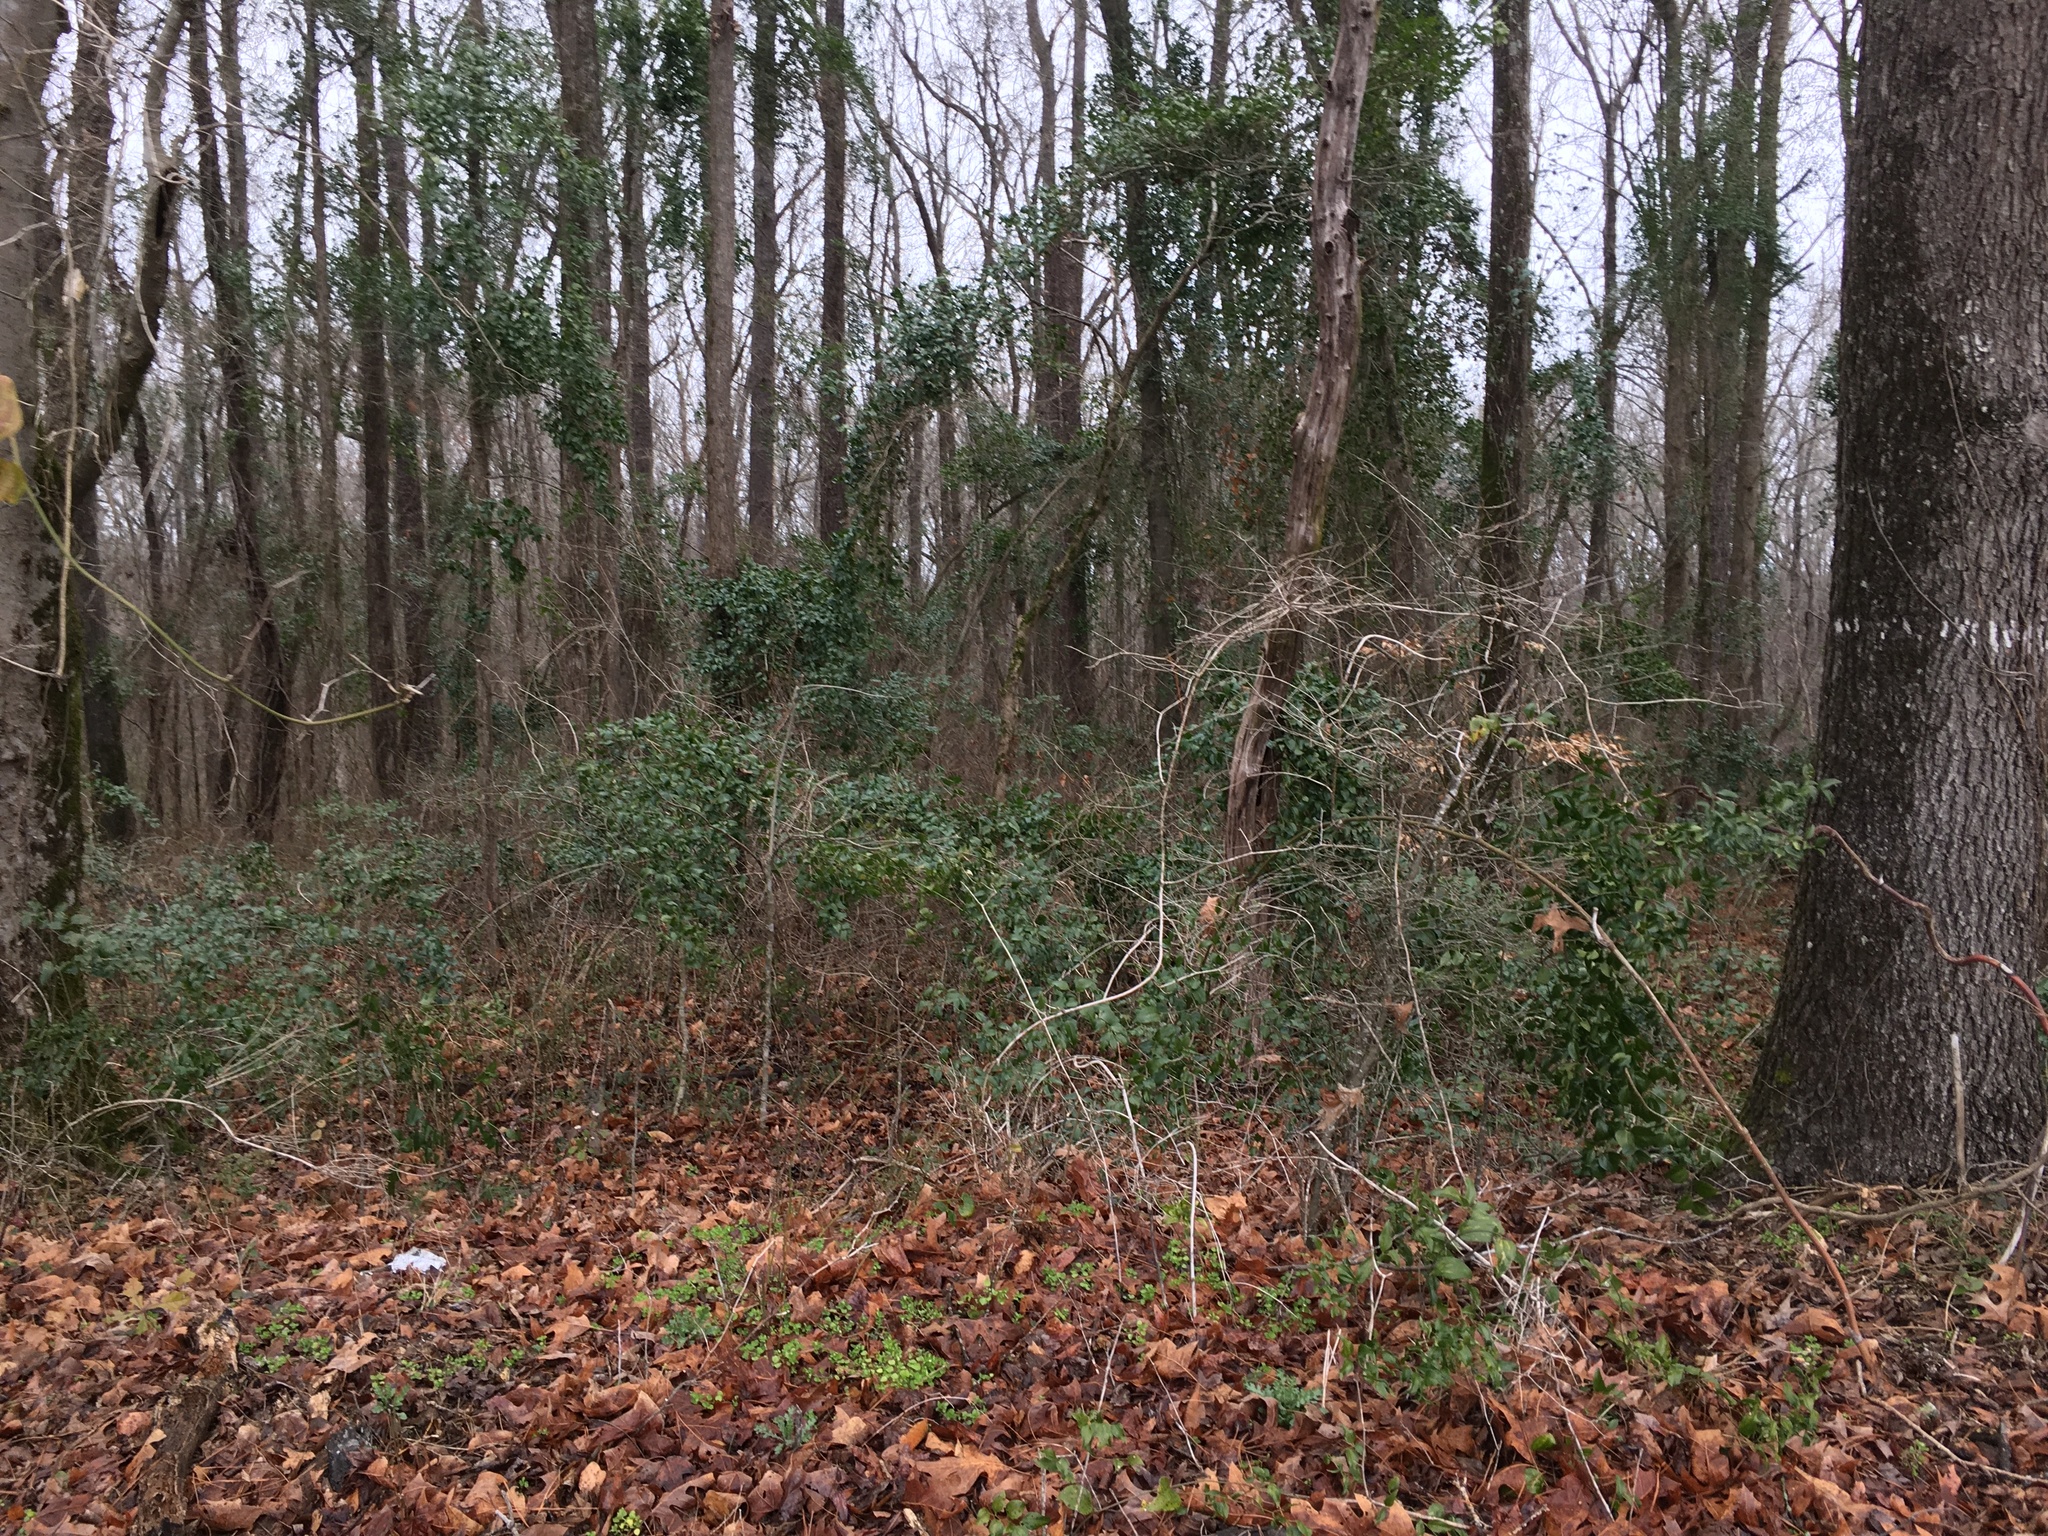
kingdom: Plantae
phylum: Tracheophyta
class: Liliopsida
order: Liliales
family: Smilacaceae
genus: Smilax
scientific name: Smilax maritima
